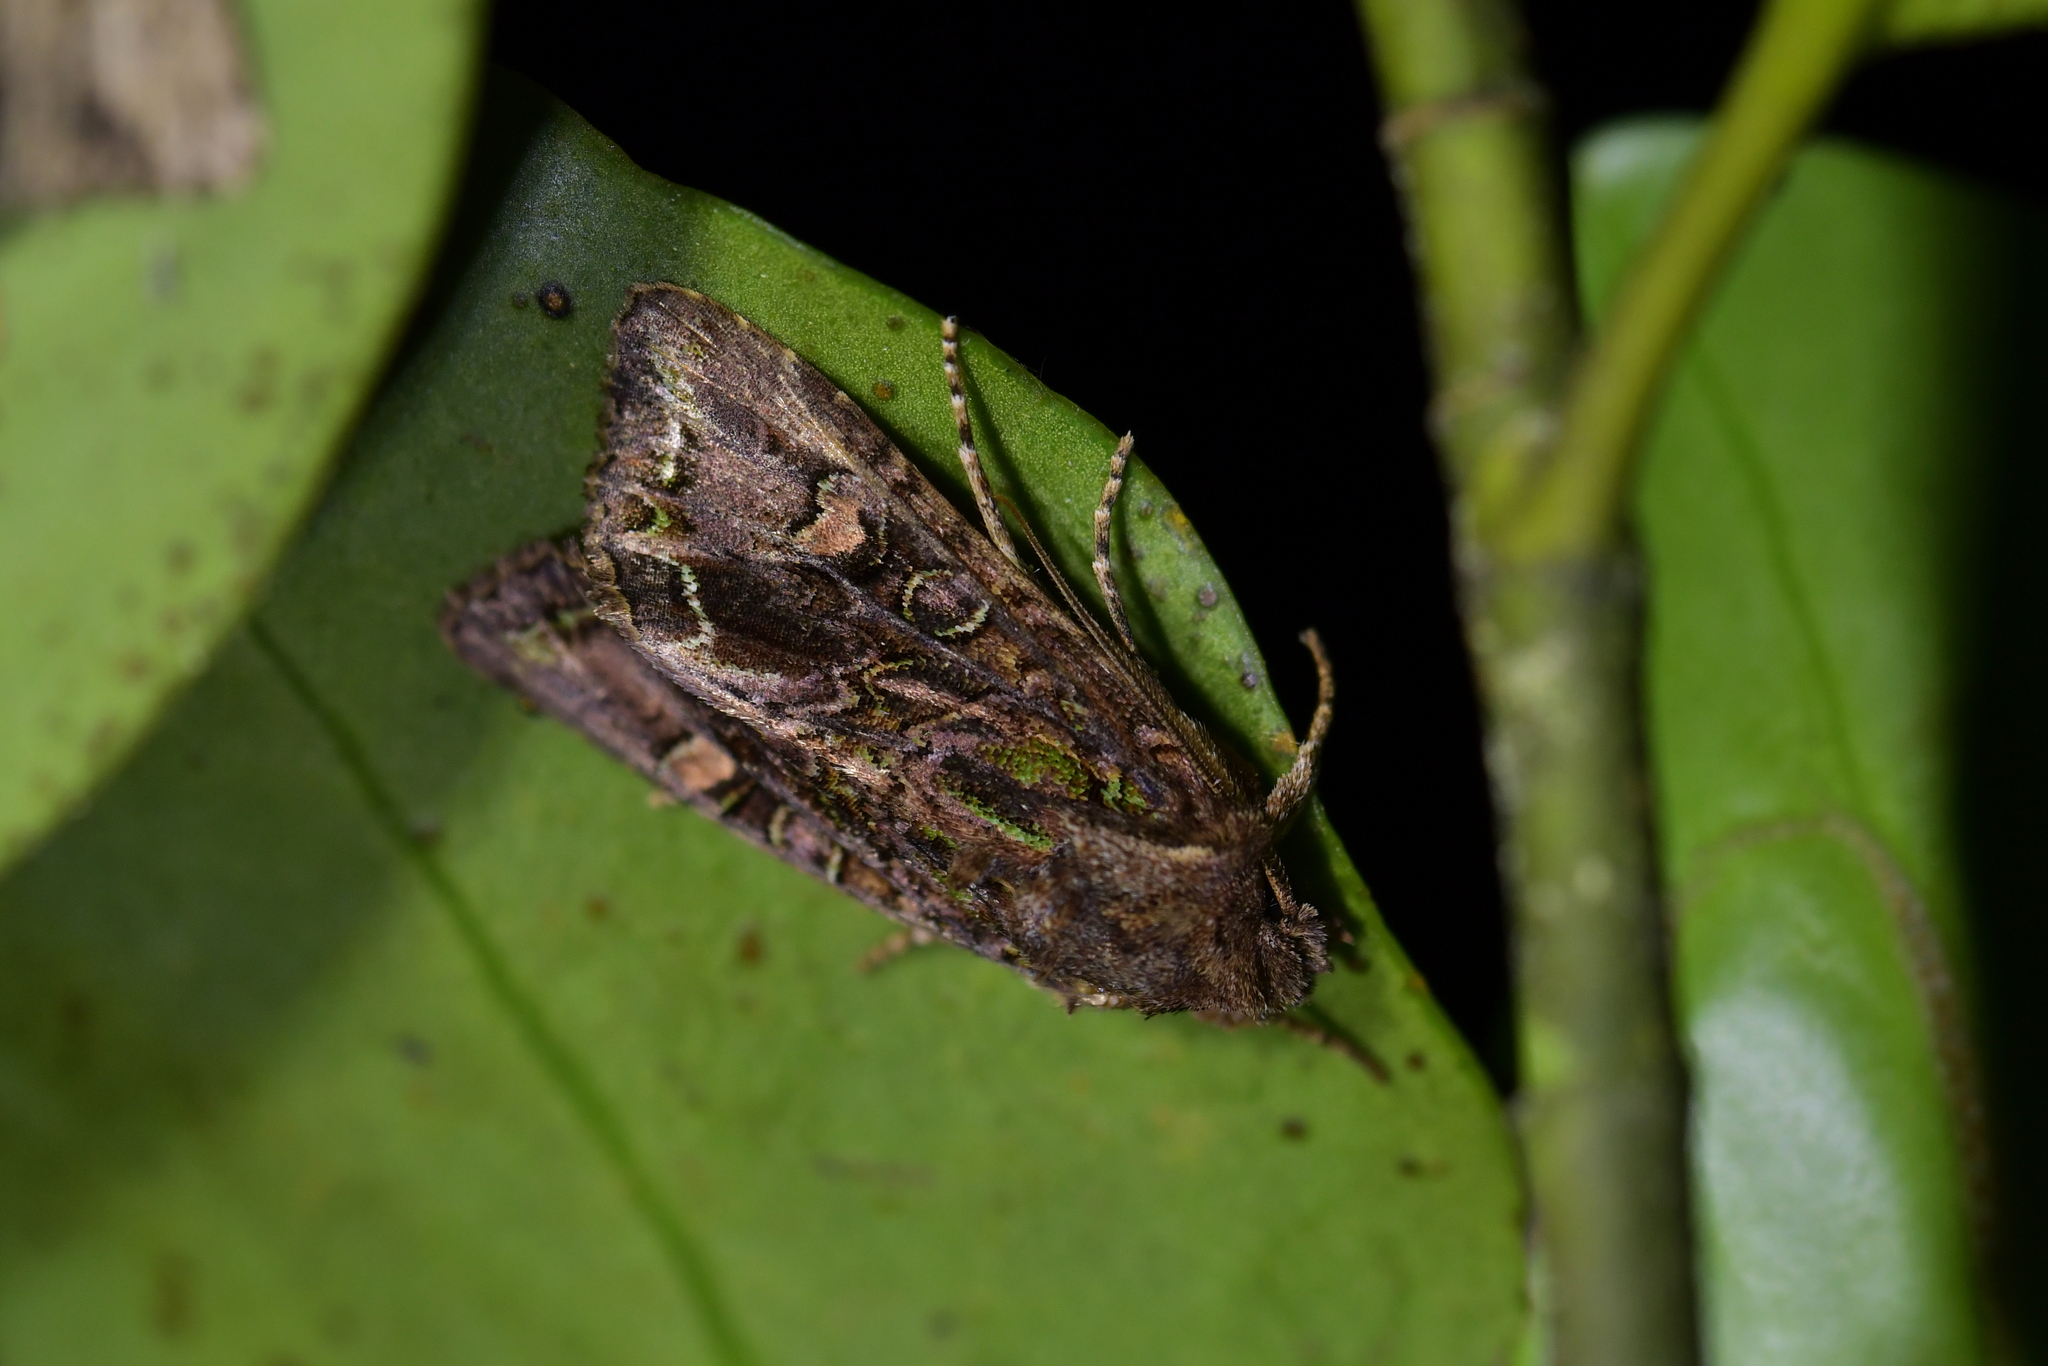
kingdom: Animalia
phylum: Arthropoda
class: Insecta
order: Lepidoptera
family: Noctuidae
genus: Ichneutica
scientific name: Ichneutica insignis
